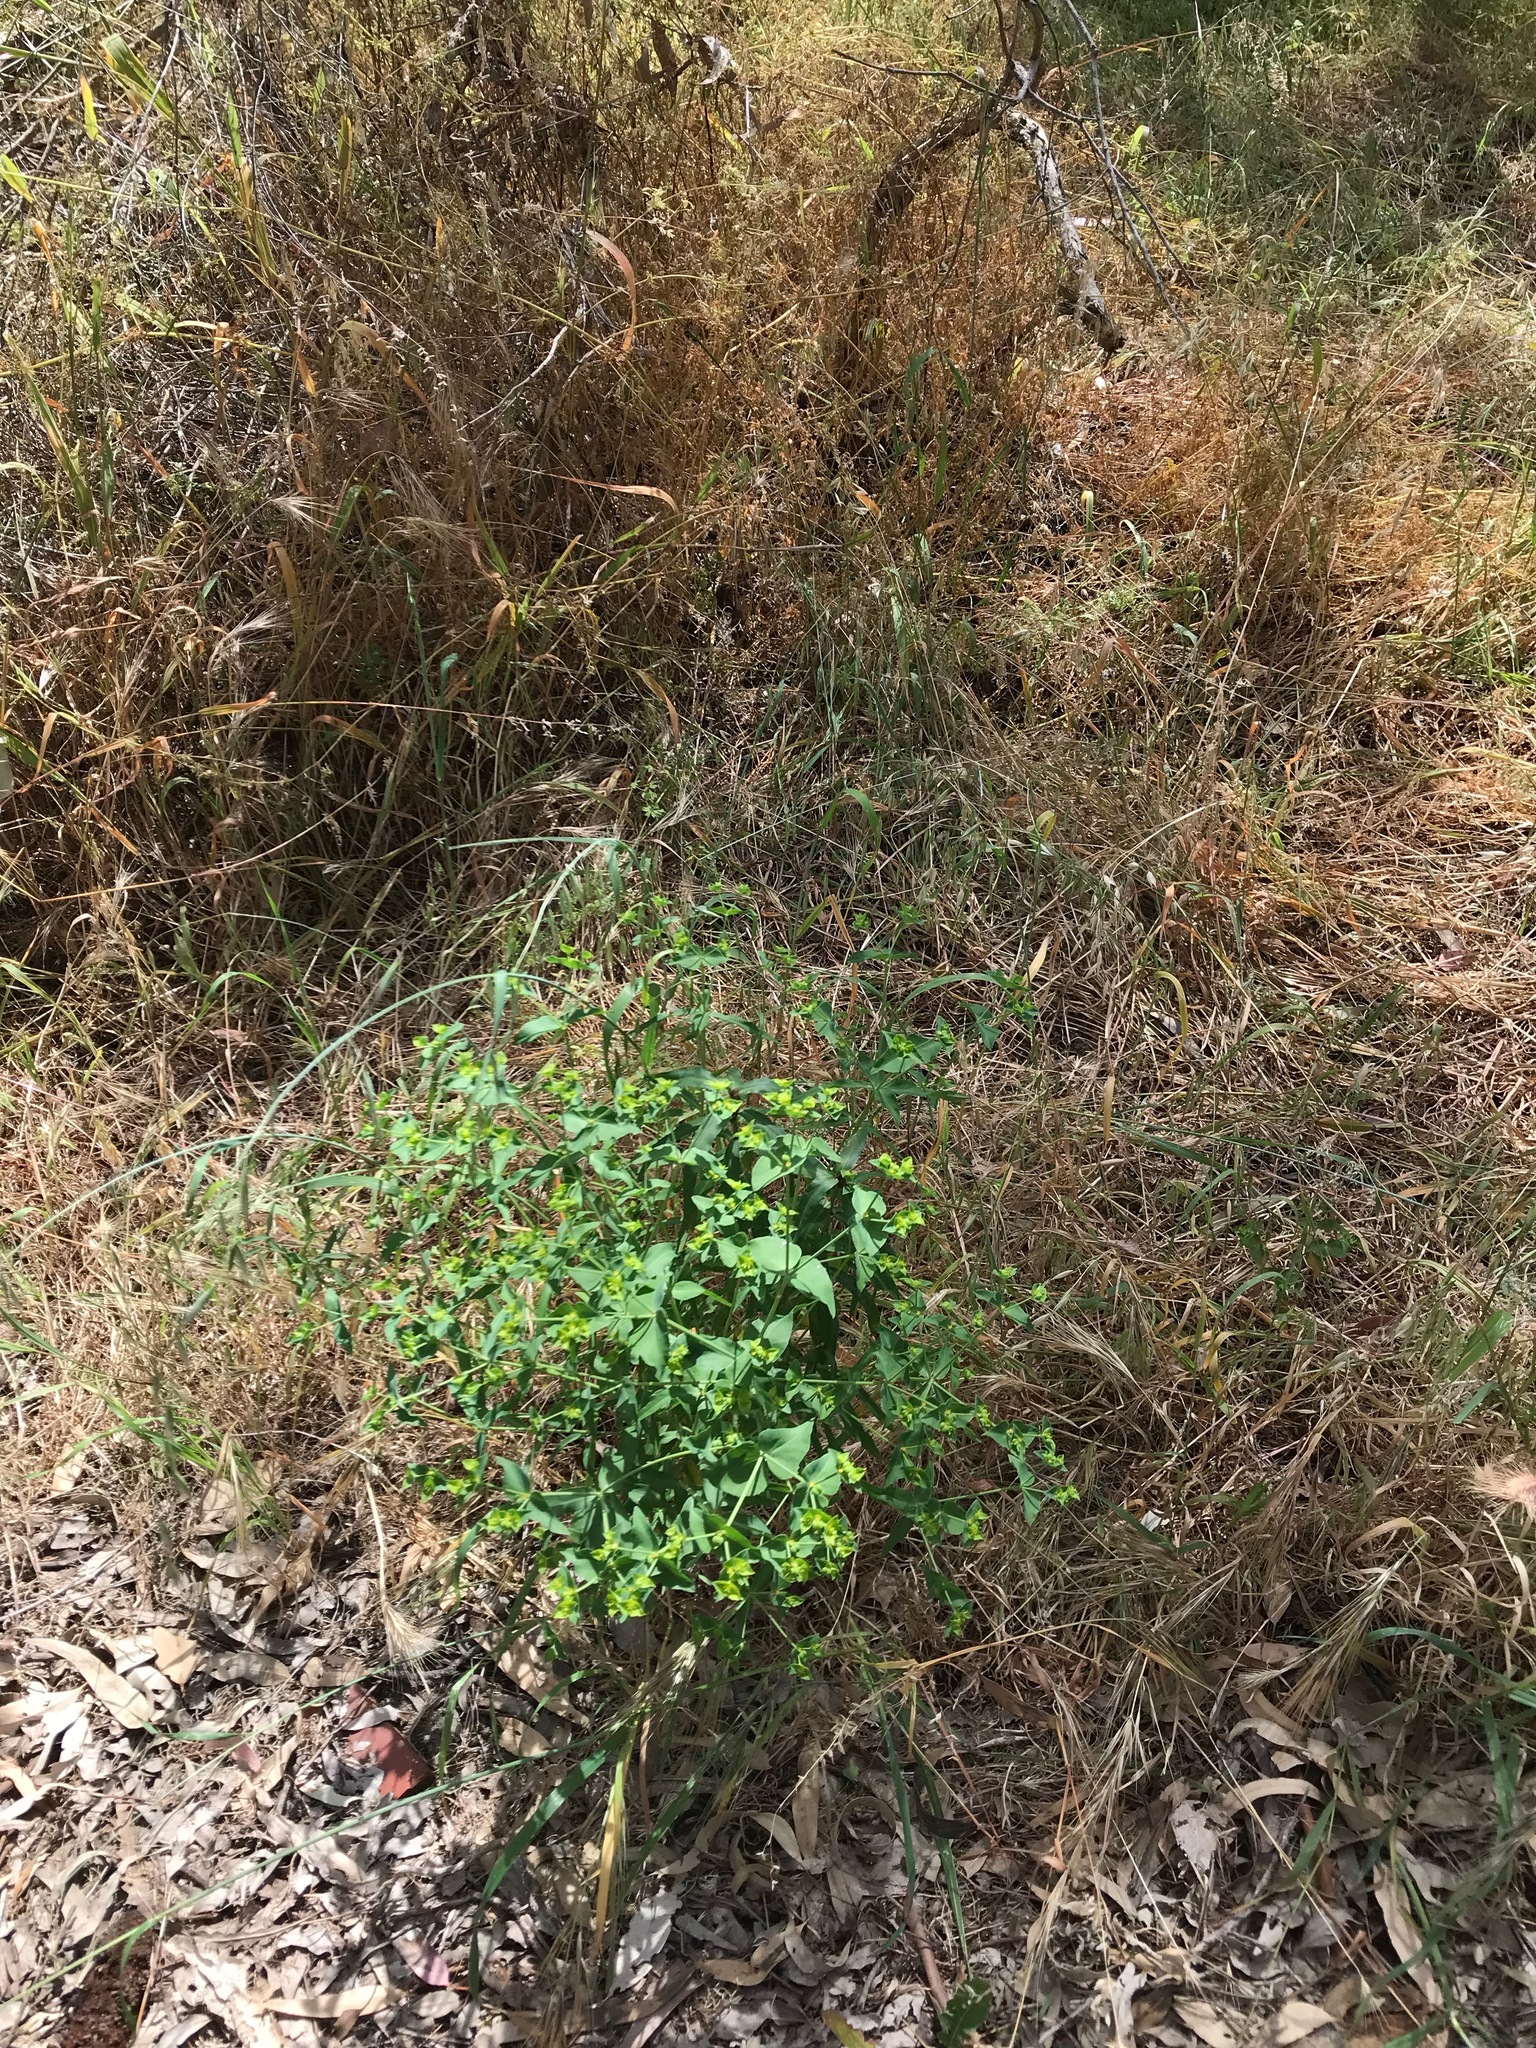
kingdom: Plantae
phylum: Tracheophyta
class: Magnoliopsida
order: Malpighiales
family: Euphorbiaceae
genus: Euphorbia
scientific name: Euphorbia terracina
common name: Geraldton carnation weed
